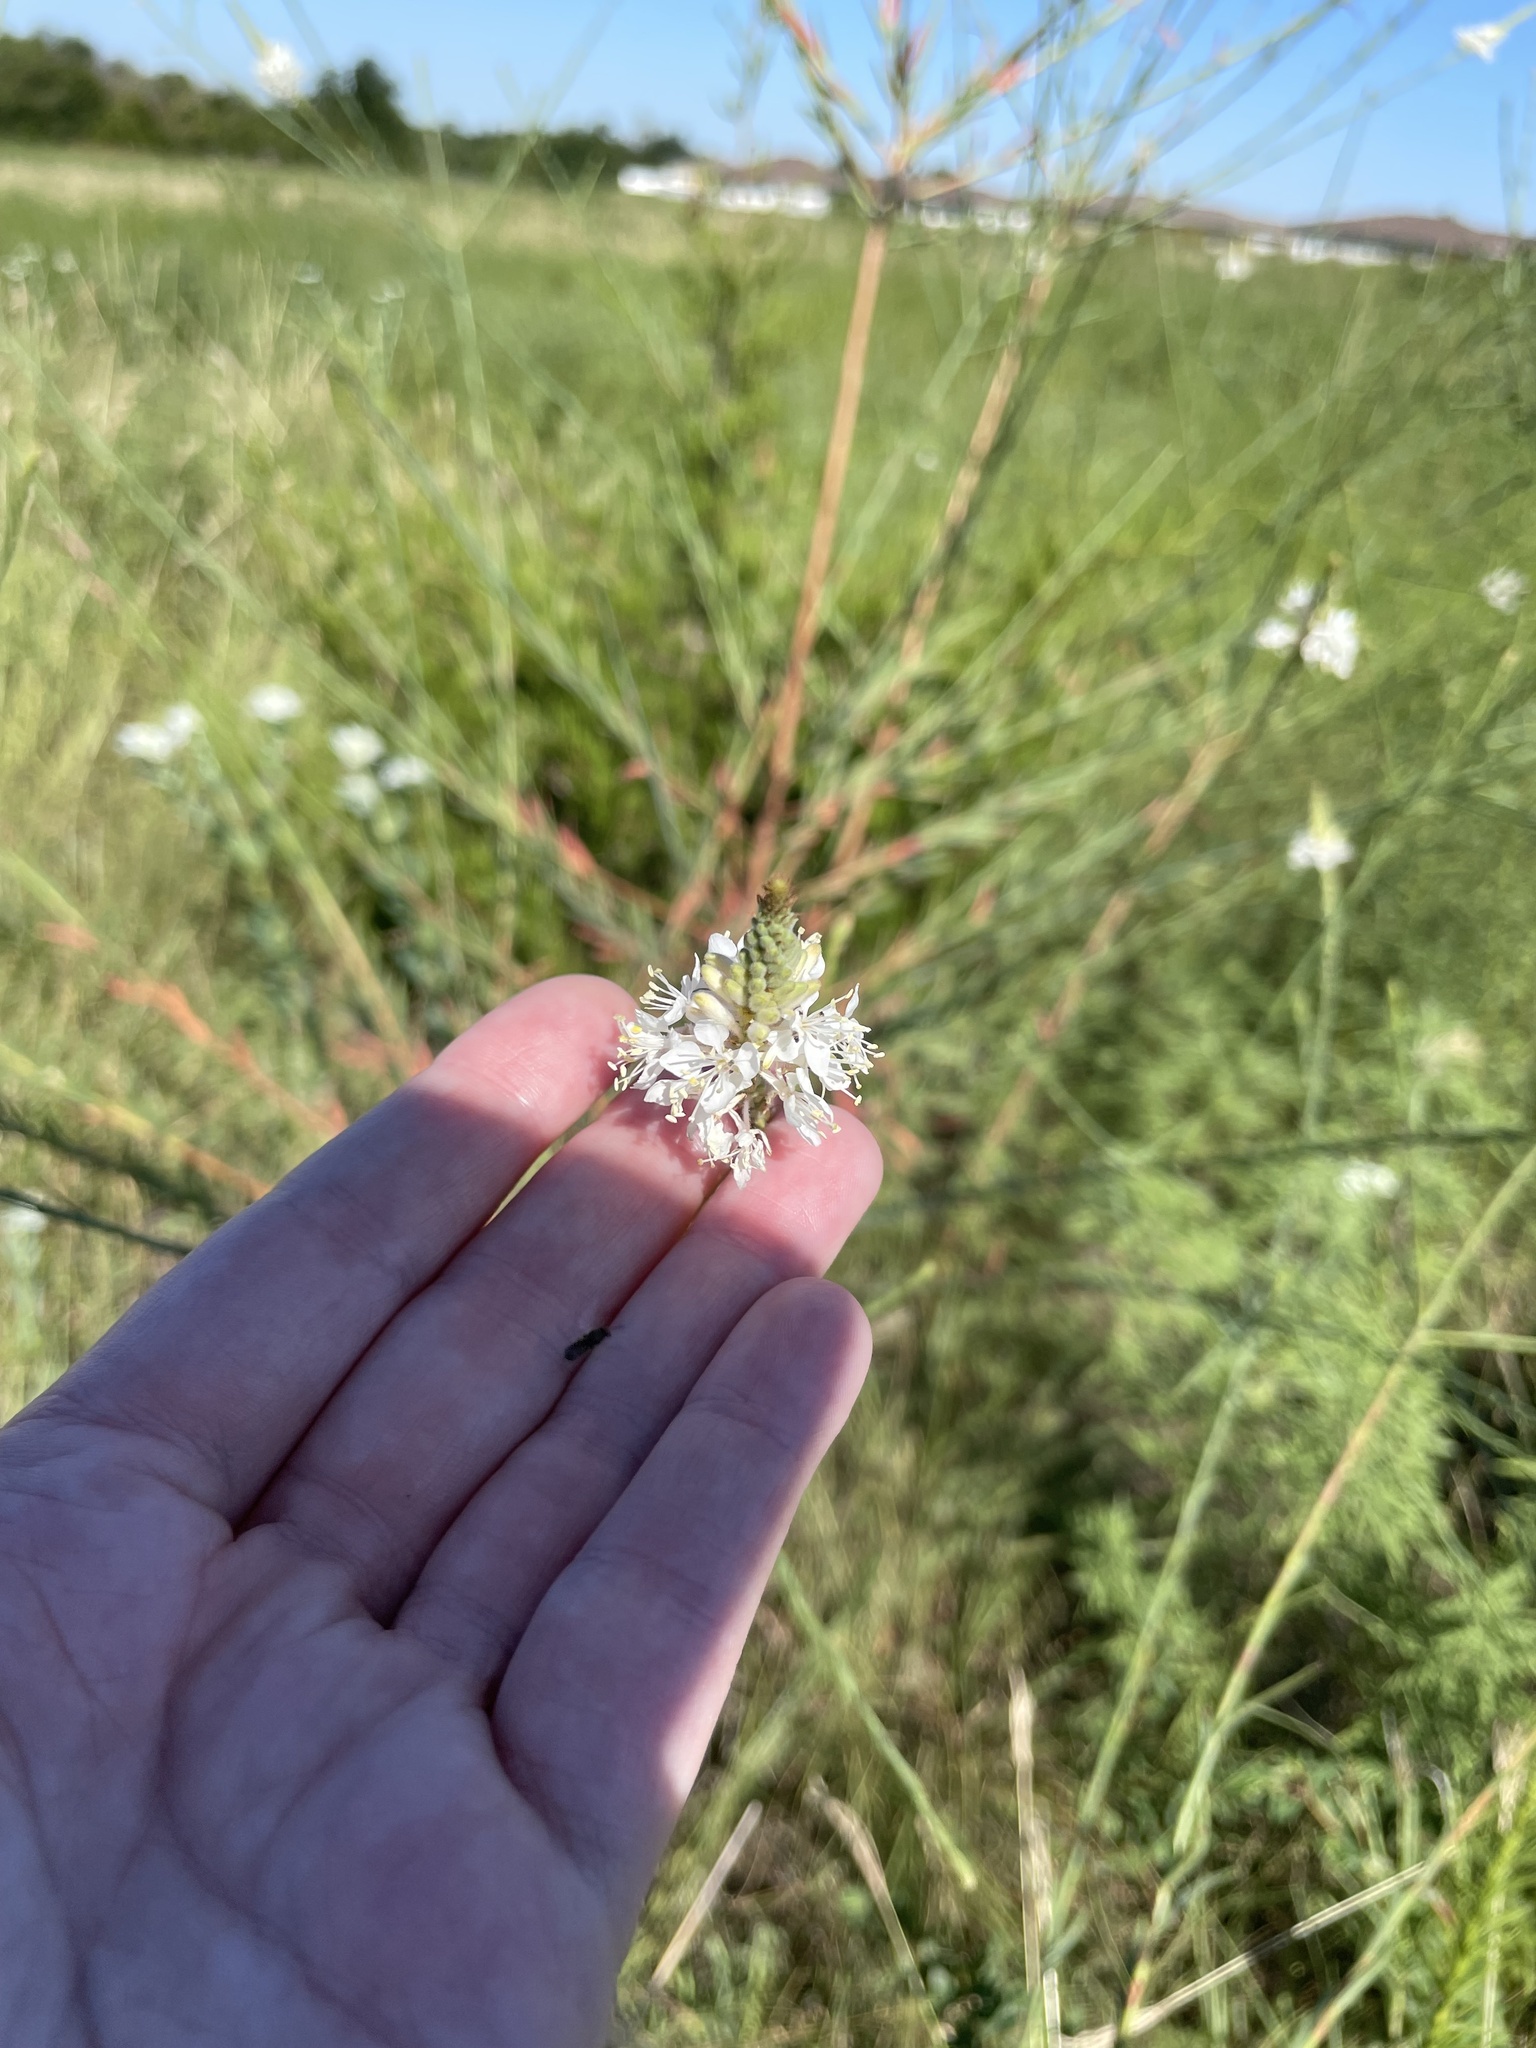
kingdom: Plantae
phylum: Tracheophyta
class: Magnoliopsida
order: Myrtales
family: Onagraceae
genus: Oenothera
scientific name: Oenothera glaucifolia
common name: False gaura
